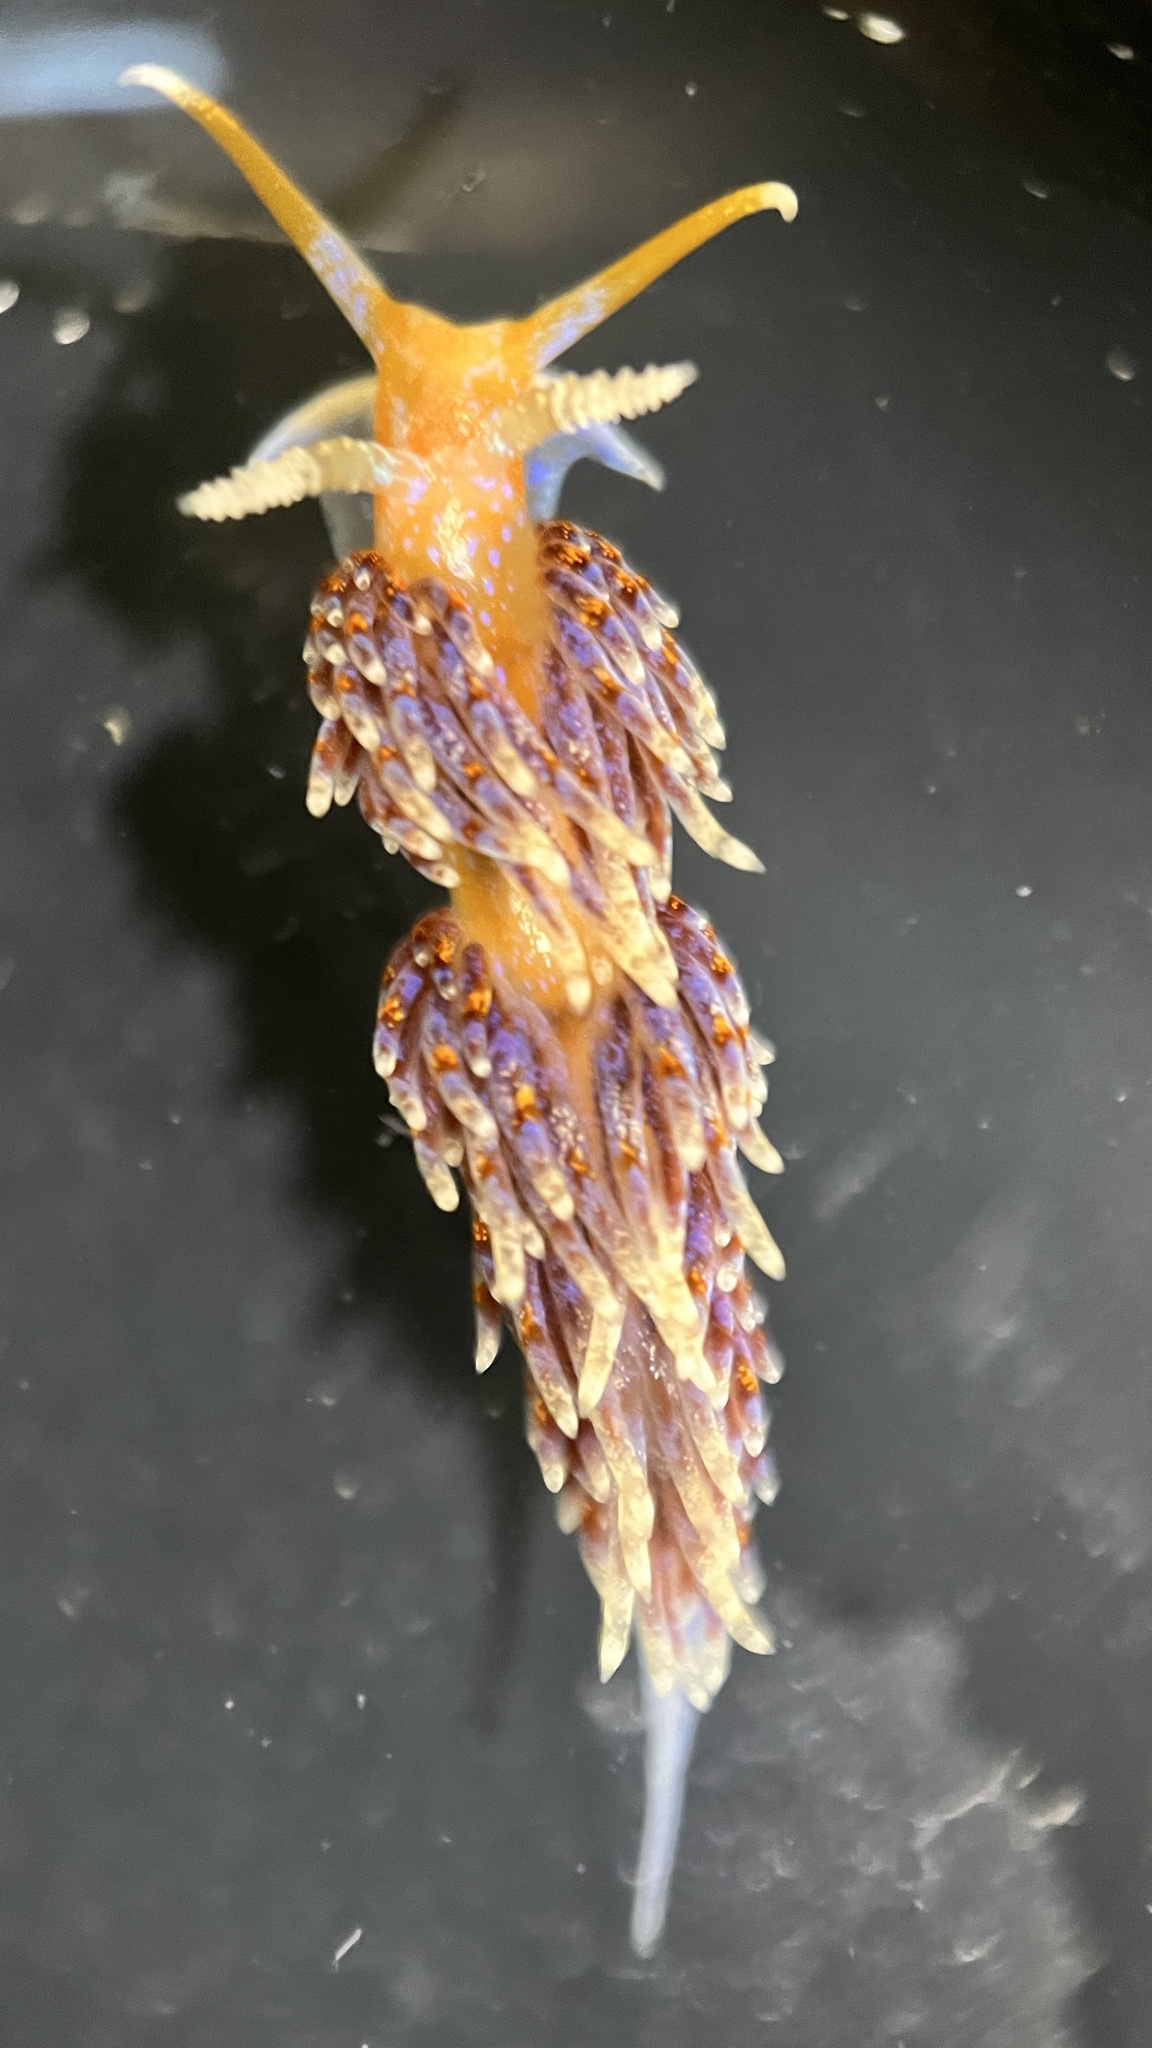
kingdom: Animalia
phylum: Mollusca
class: Gastropoda
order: Nudibranchia
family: Facelinidae
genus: Austraeolis
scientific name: Austraeolis ornata
